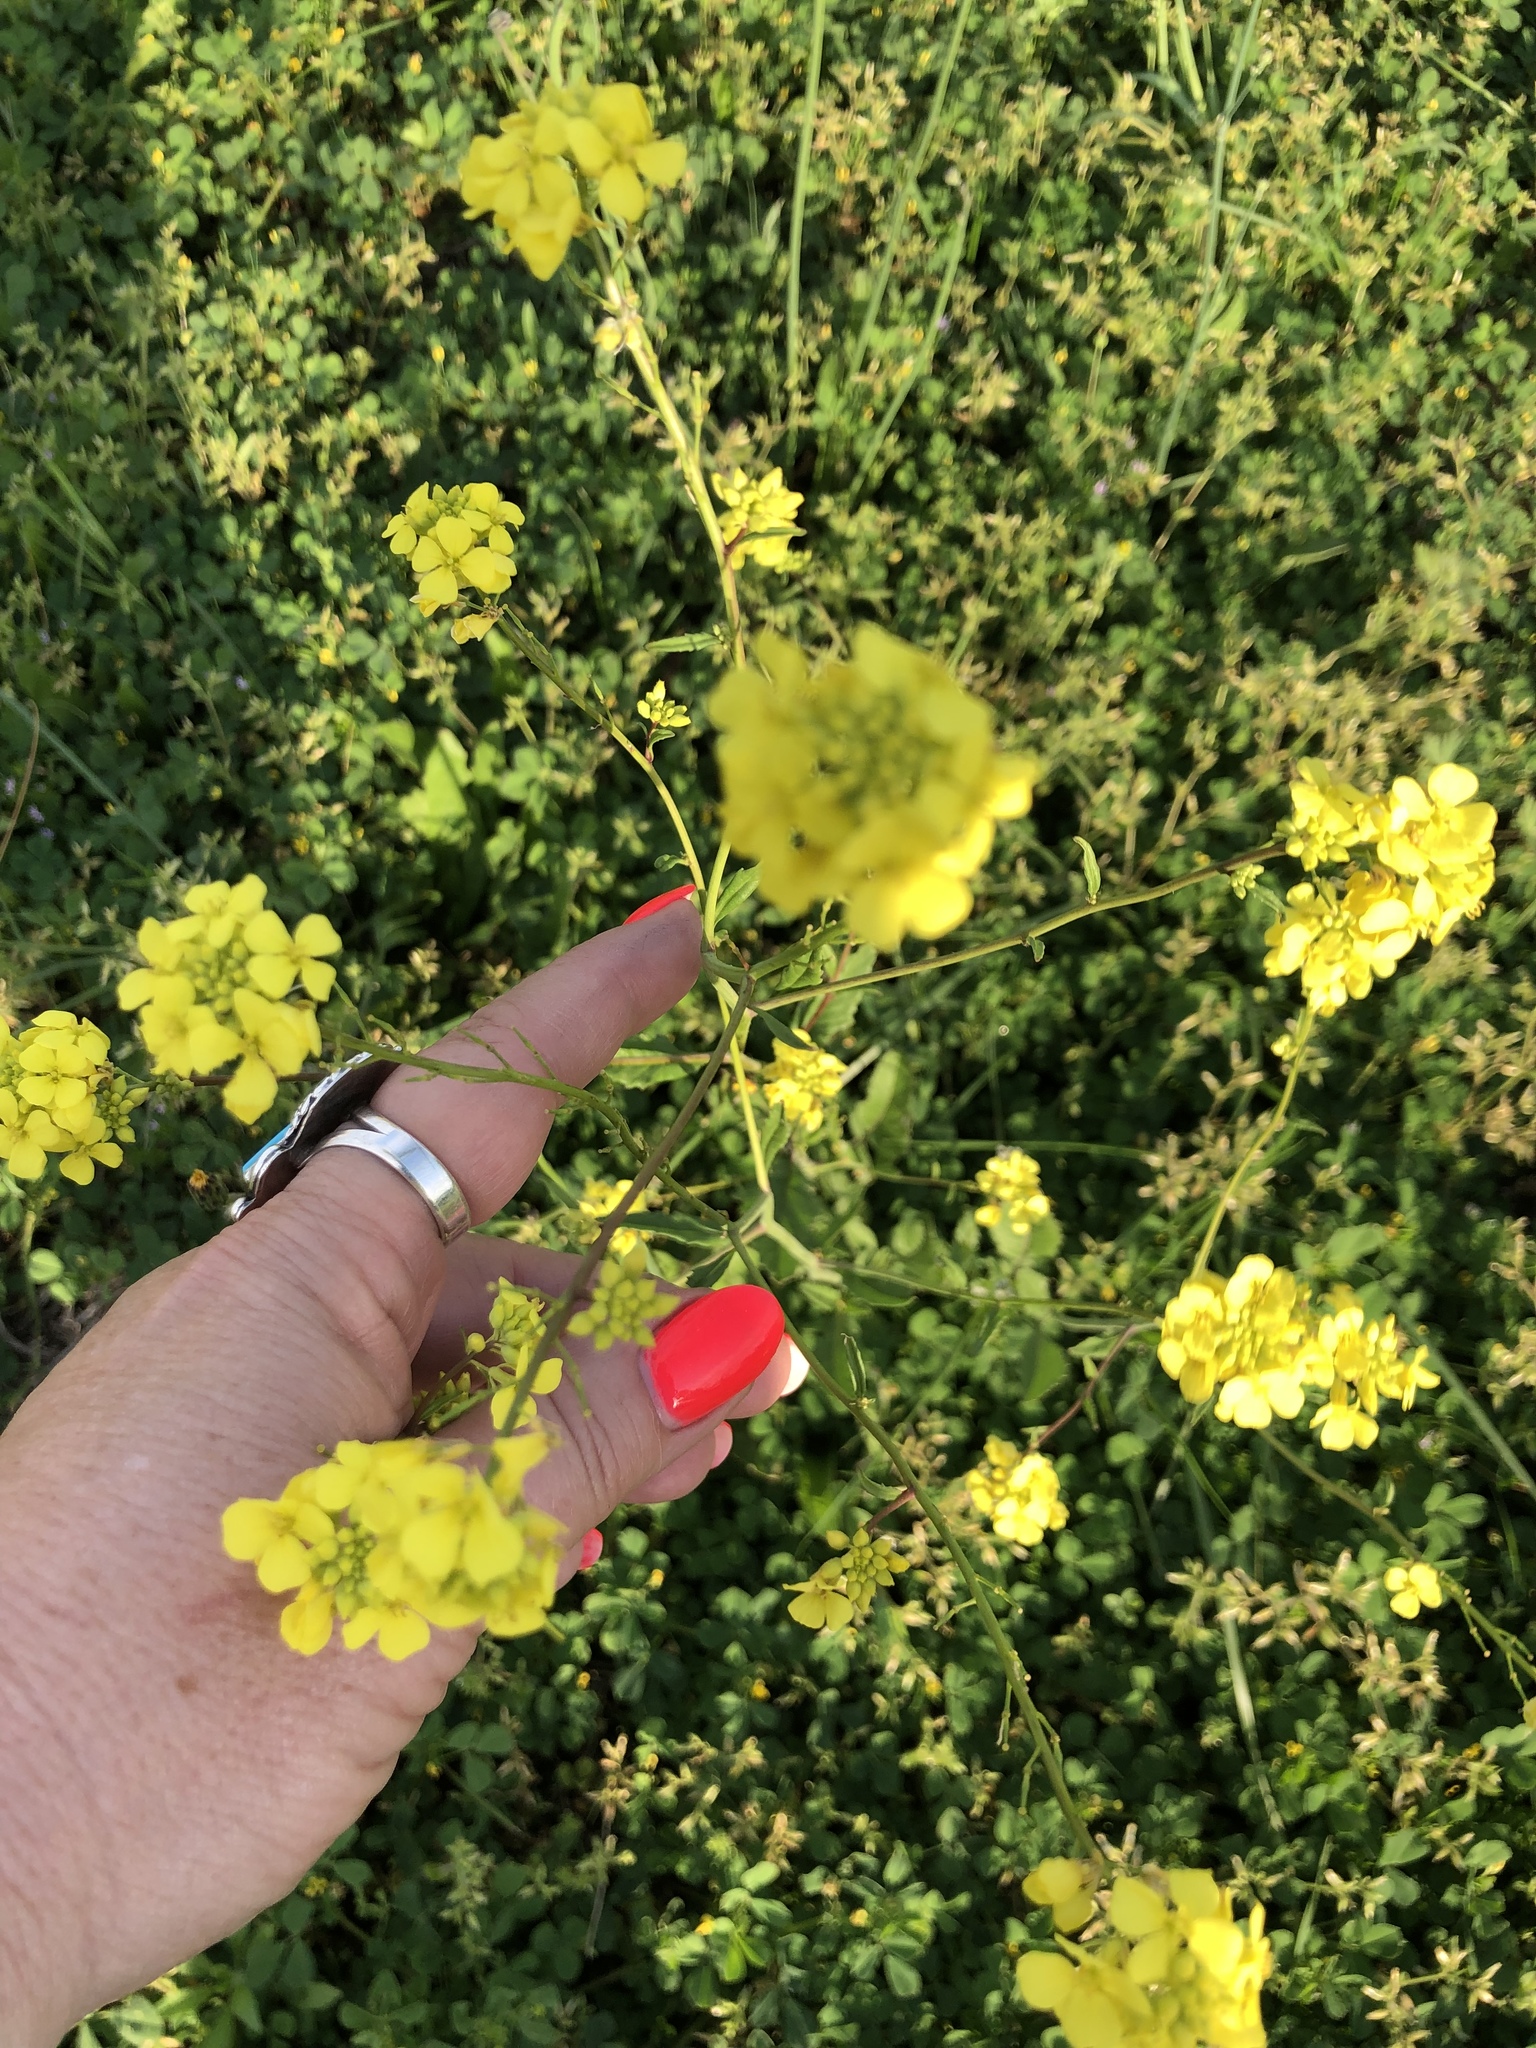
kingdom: Plantae
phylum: Tracheophyta
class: Magnoliopsida
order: Brassicales
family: Brassicaceae
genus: Rapistrum
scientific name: Rapistrum rugosum
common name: Annual bastardcabbage
